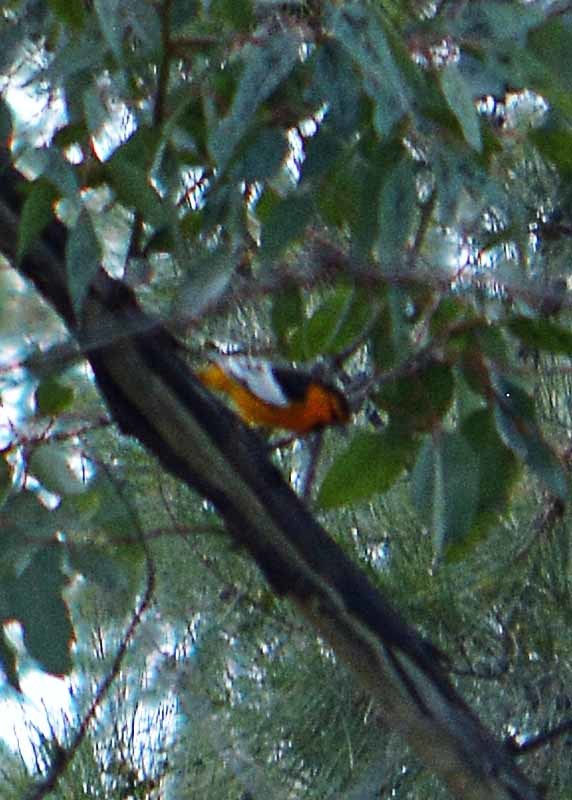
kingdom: Animalia
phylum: Chordata
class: Aves
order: Passeriformes
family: Icteridae
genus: Icterus
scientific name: Icterus bullockii
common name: Bullock's oriole
